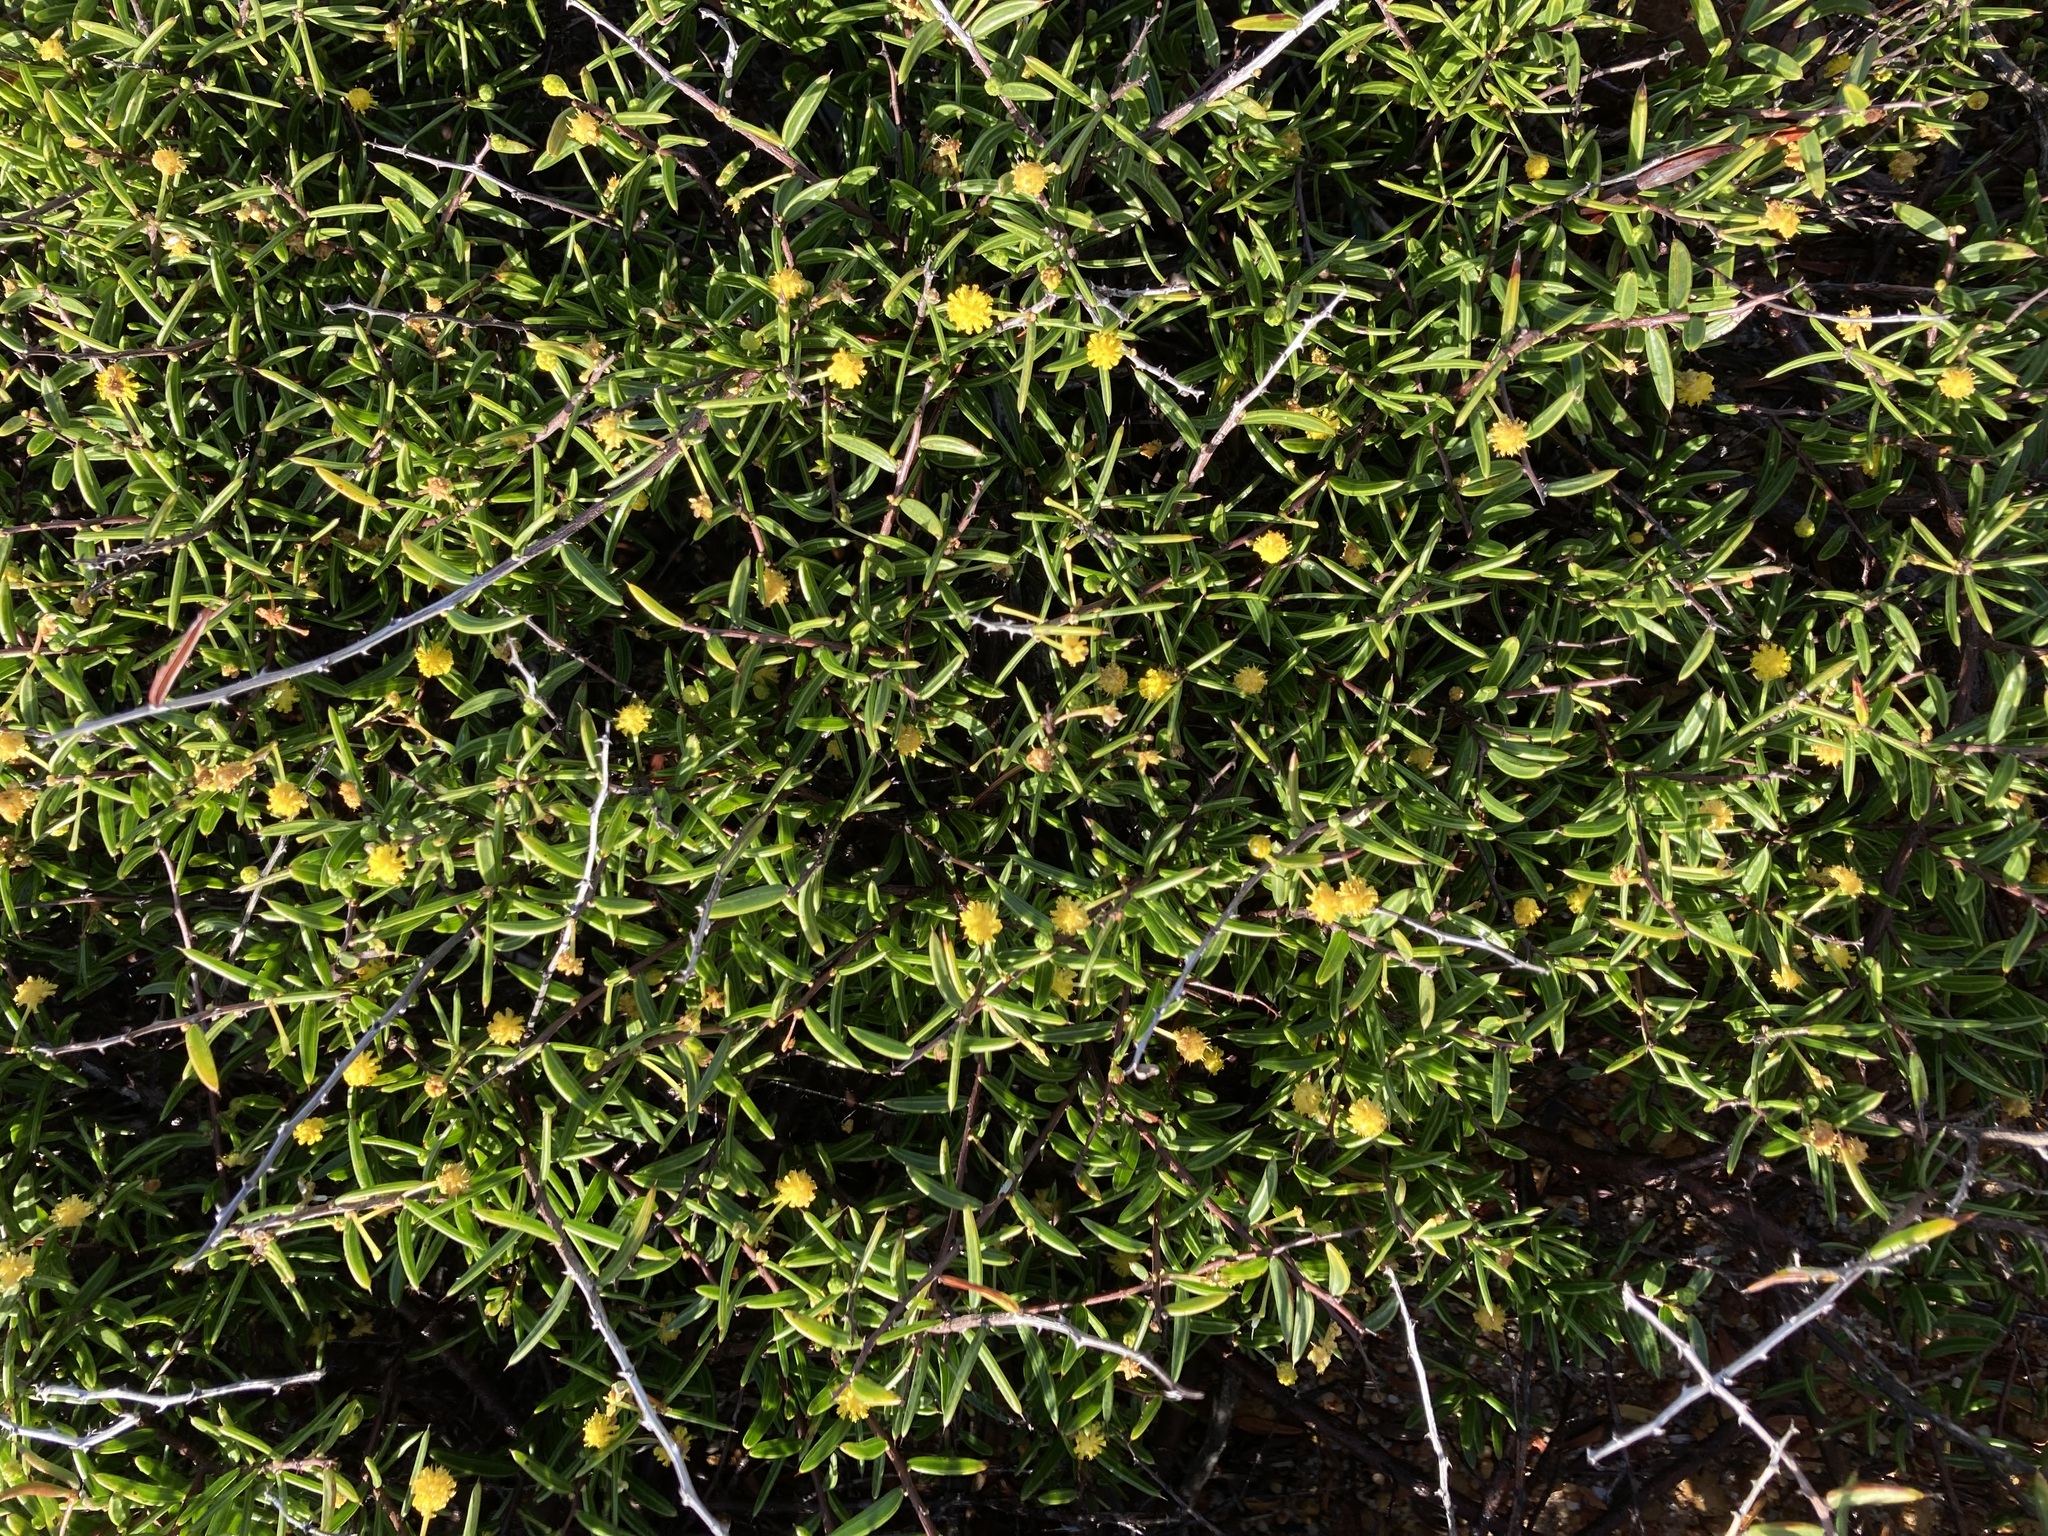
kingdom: Plantae
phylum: Tracheophyta
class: Magnoliopsida
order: Fabales
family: Fabaceae
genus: Acacia
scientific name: Acacia andrewsii
